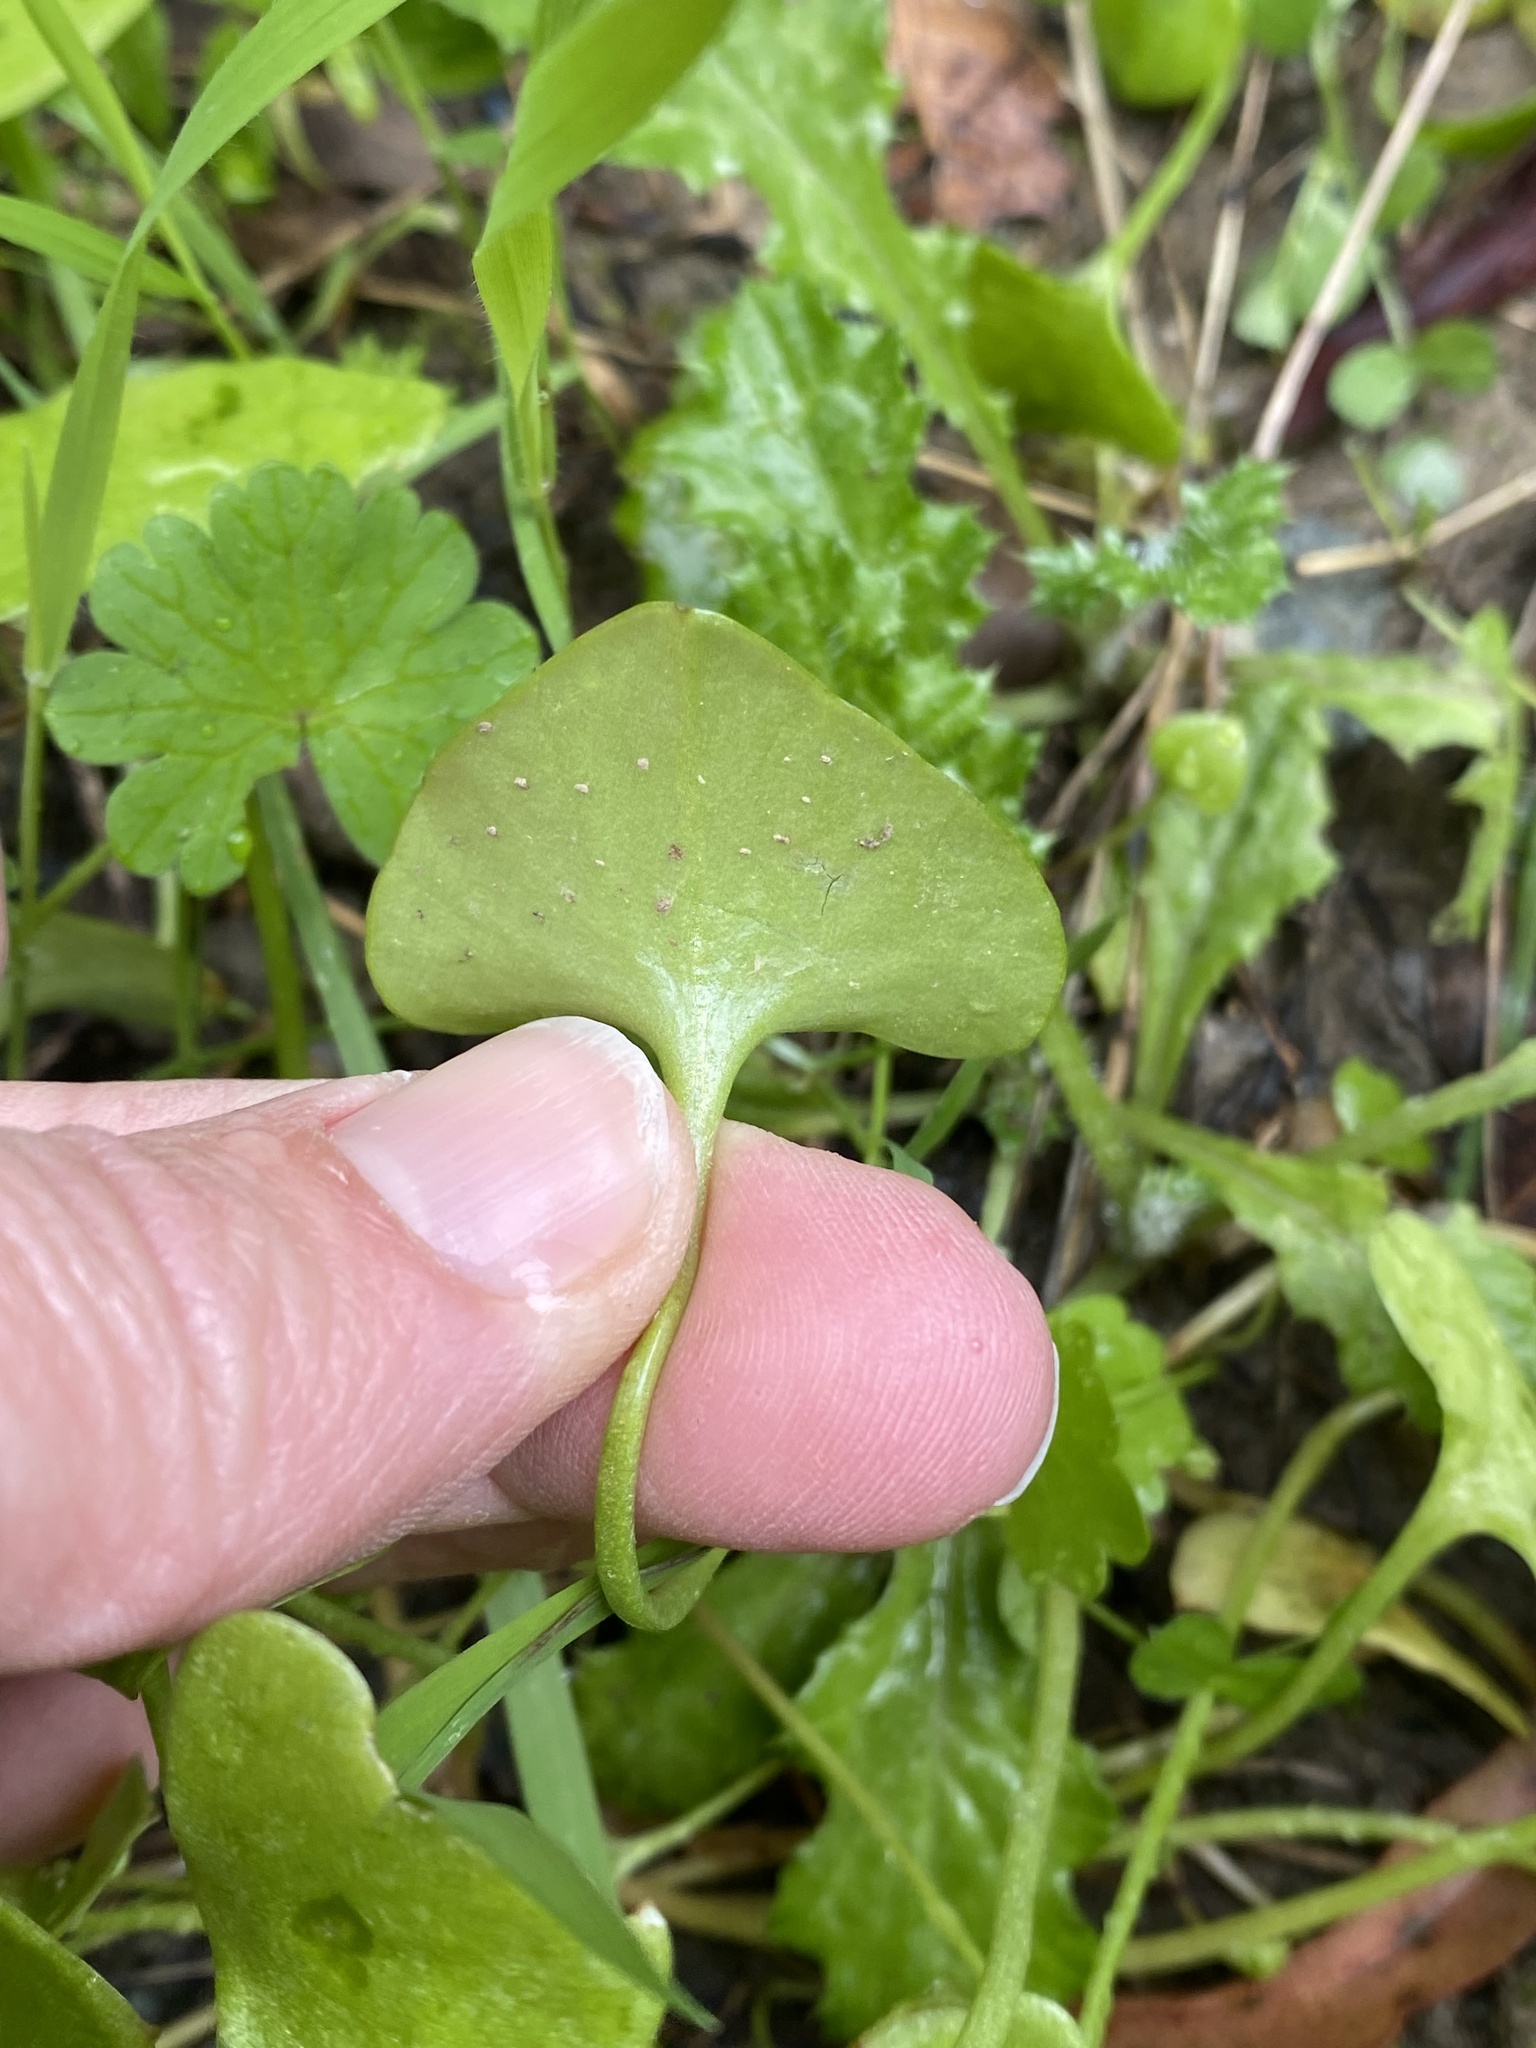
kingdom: Plantae
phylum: Tracheophyta
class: Magnoliopsida
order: Caryophyllales
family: Montiaceae
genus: Claytonia
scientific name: Claytonia perfoliata
